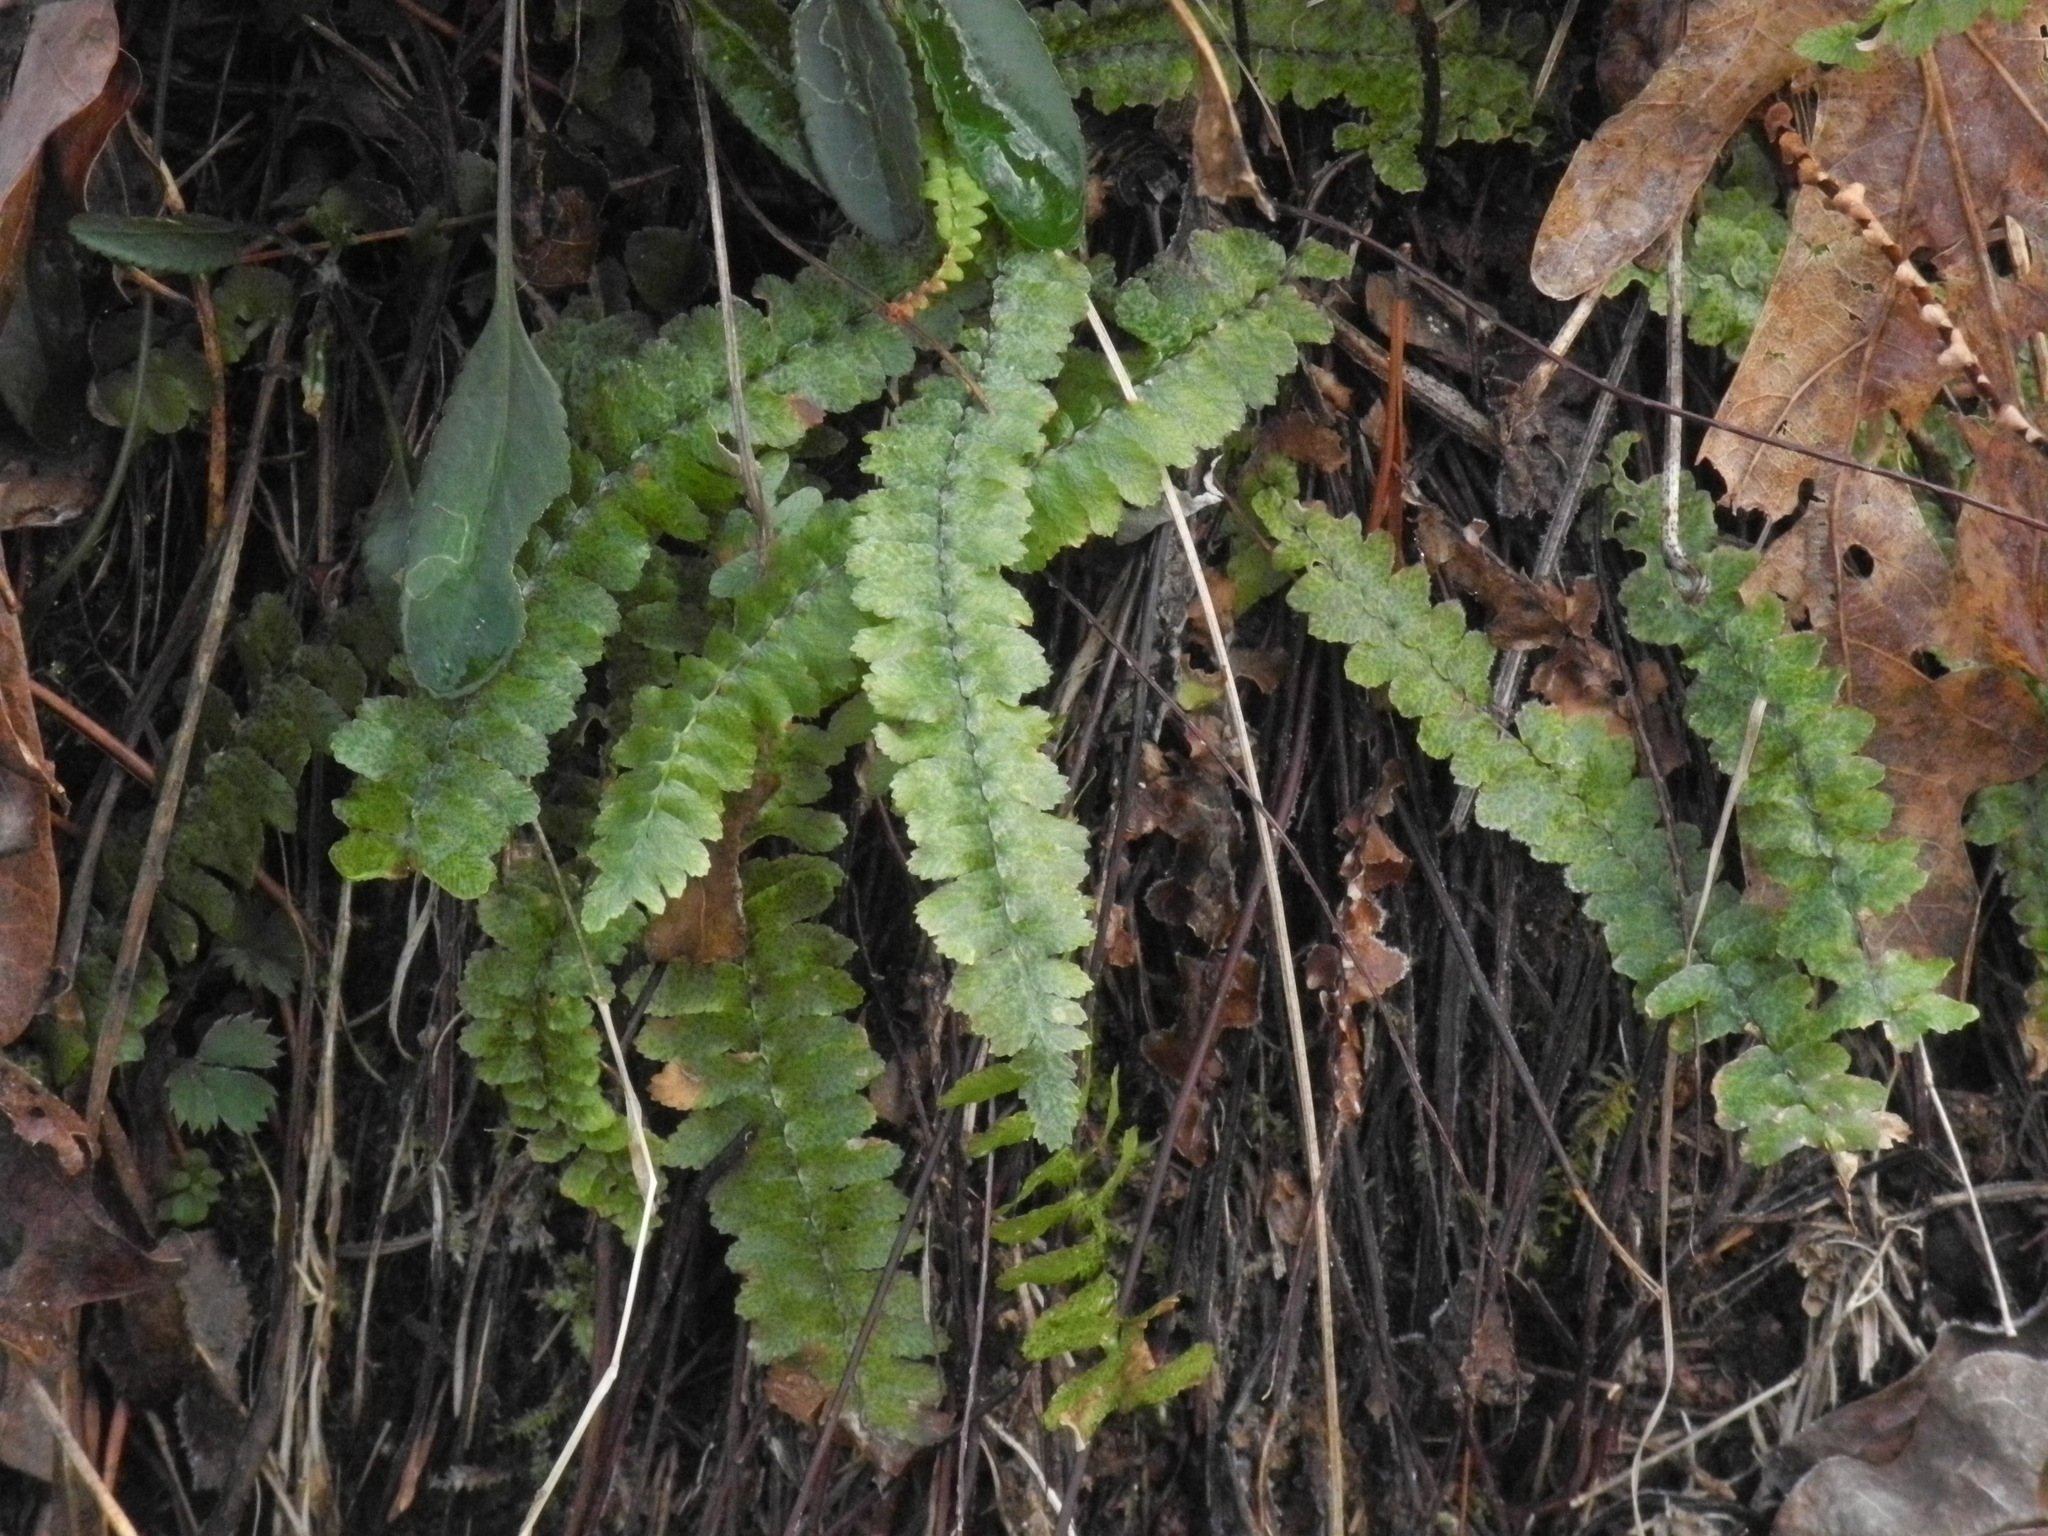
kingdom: Plantae
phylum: Tracheophyta
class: Polypodiopsida
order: Polypodiales
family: Aspleniaceae
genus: Asplenium
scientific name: Asplenium platyneuron
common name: Ebony spleenwort
